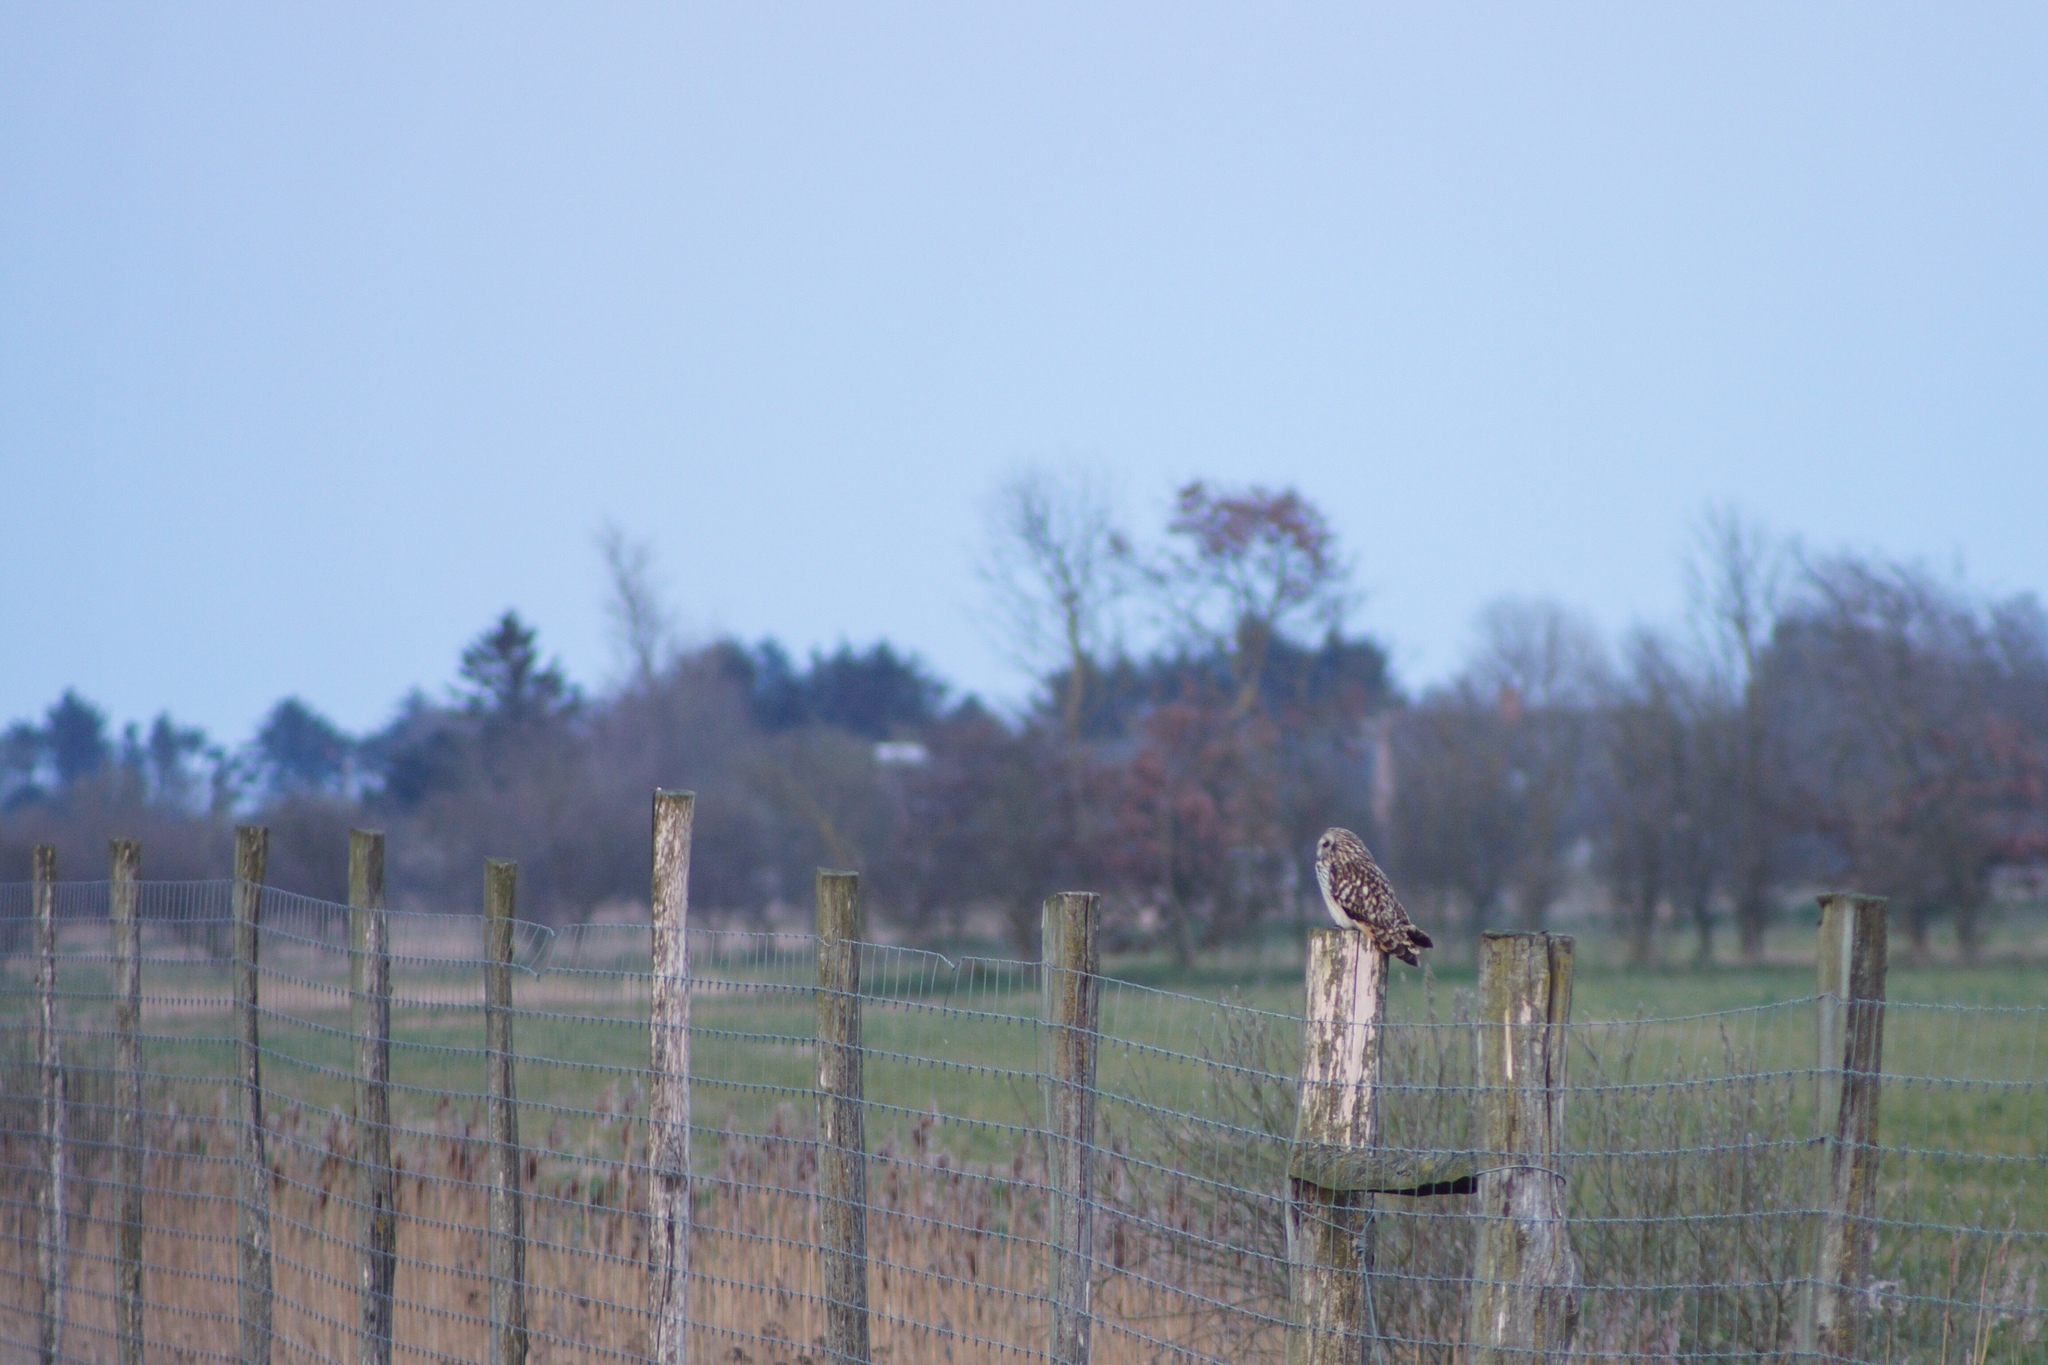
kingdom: Animalia
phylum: Chordata
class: Aves
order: Strigiformes
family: Strigidae
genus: Asio
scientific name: Asio flammeus
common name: Short-eared owl
